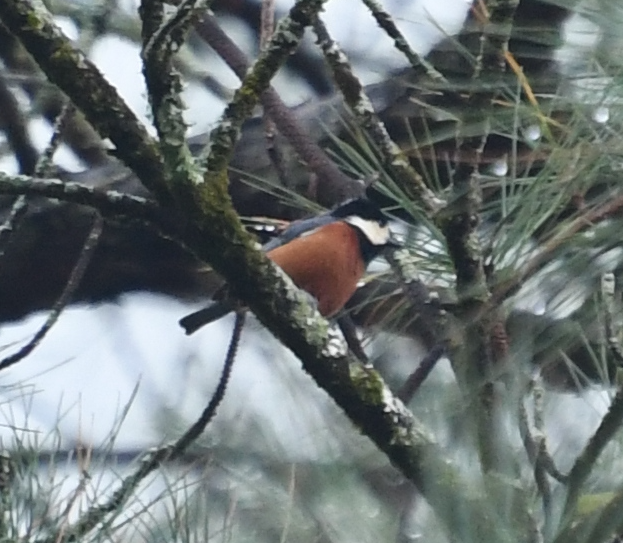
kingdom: Animalia
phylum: Chordata
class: Aves
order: Passeriformes
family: Paridae
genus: Poecile
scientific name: Poecile varius
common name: Varied tit
